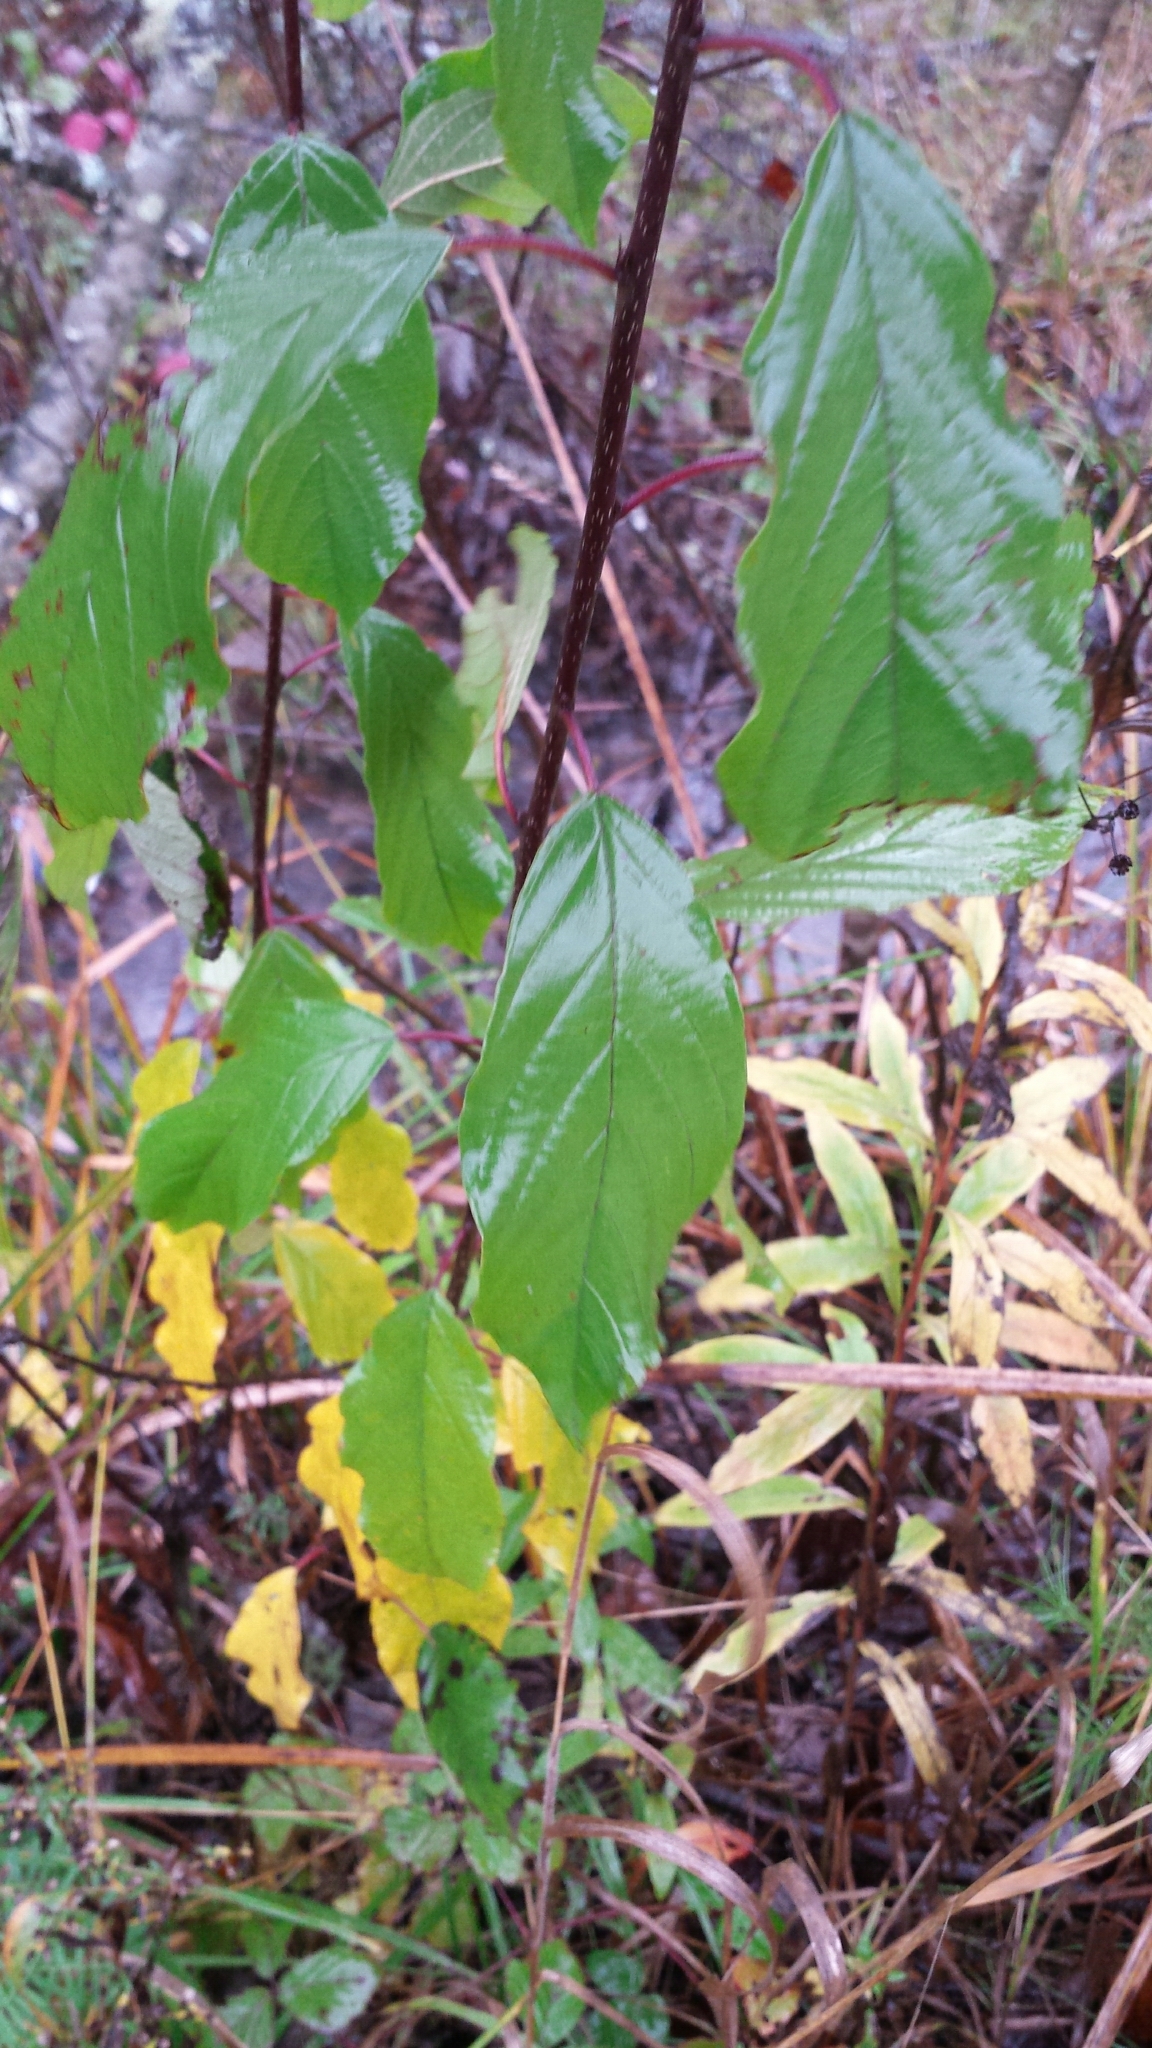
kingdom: Plantae
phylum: Tracheophyta
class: Magnoliopsida
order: Rosales
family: Rhamnaceae
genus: Frangula
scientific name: Frangula alnus
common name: Alder buckthorn
